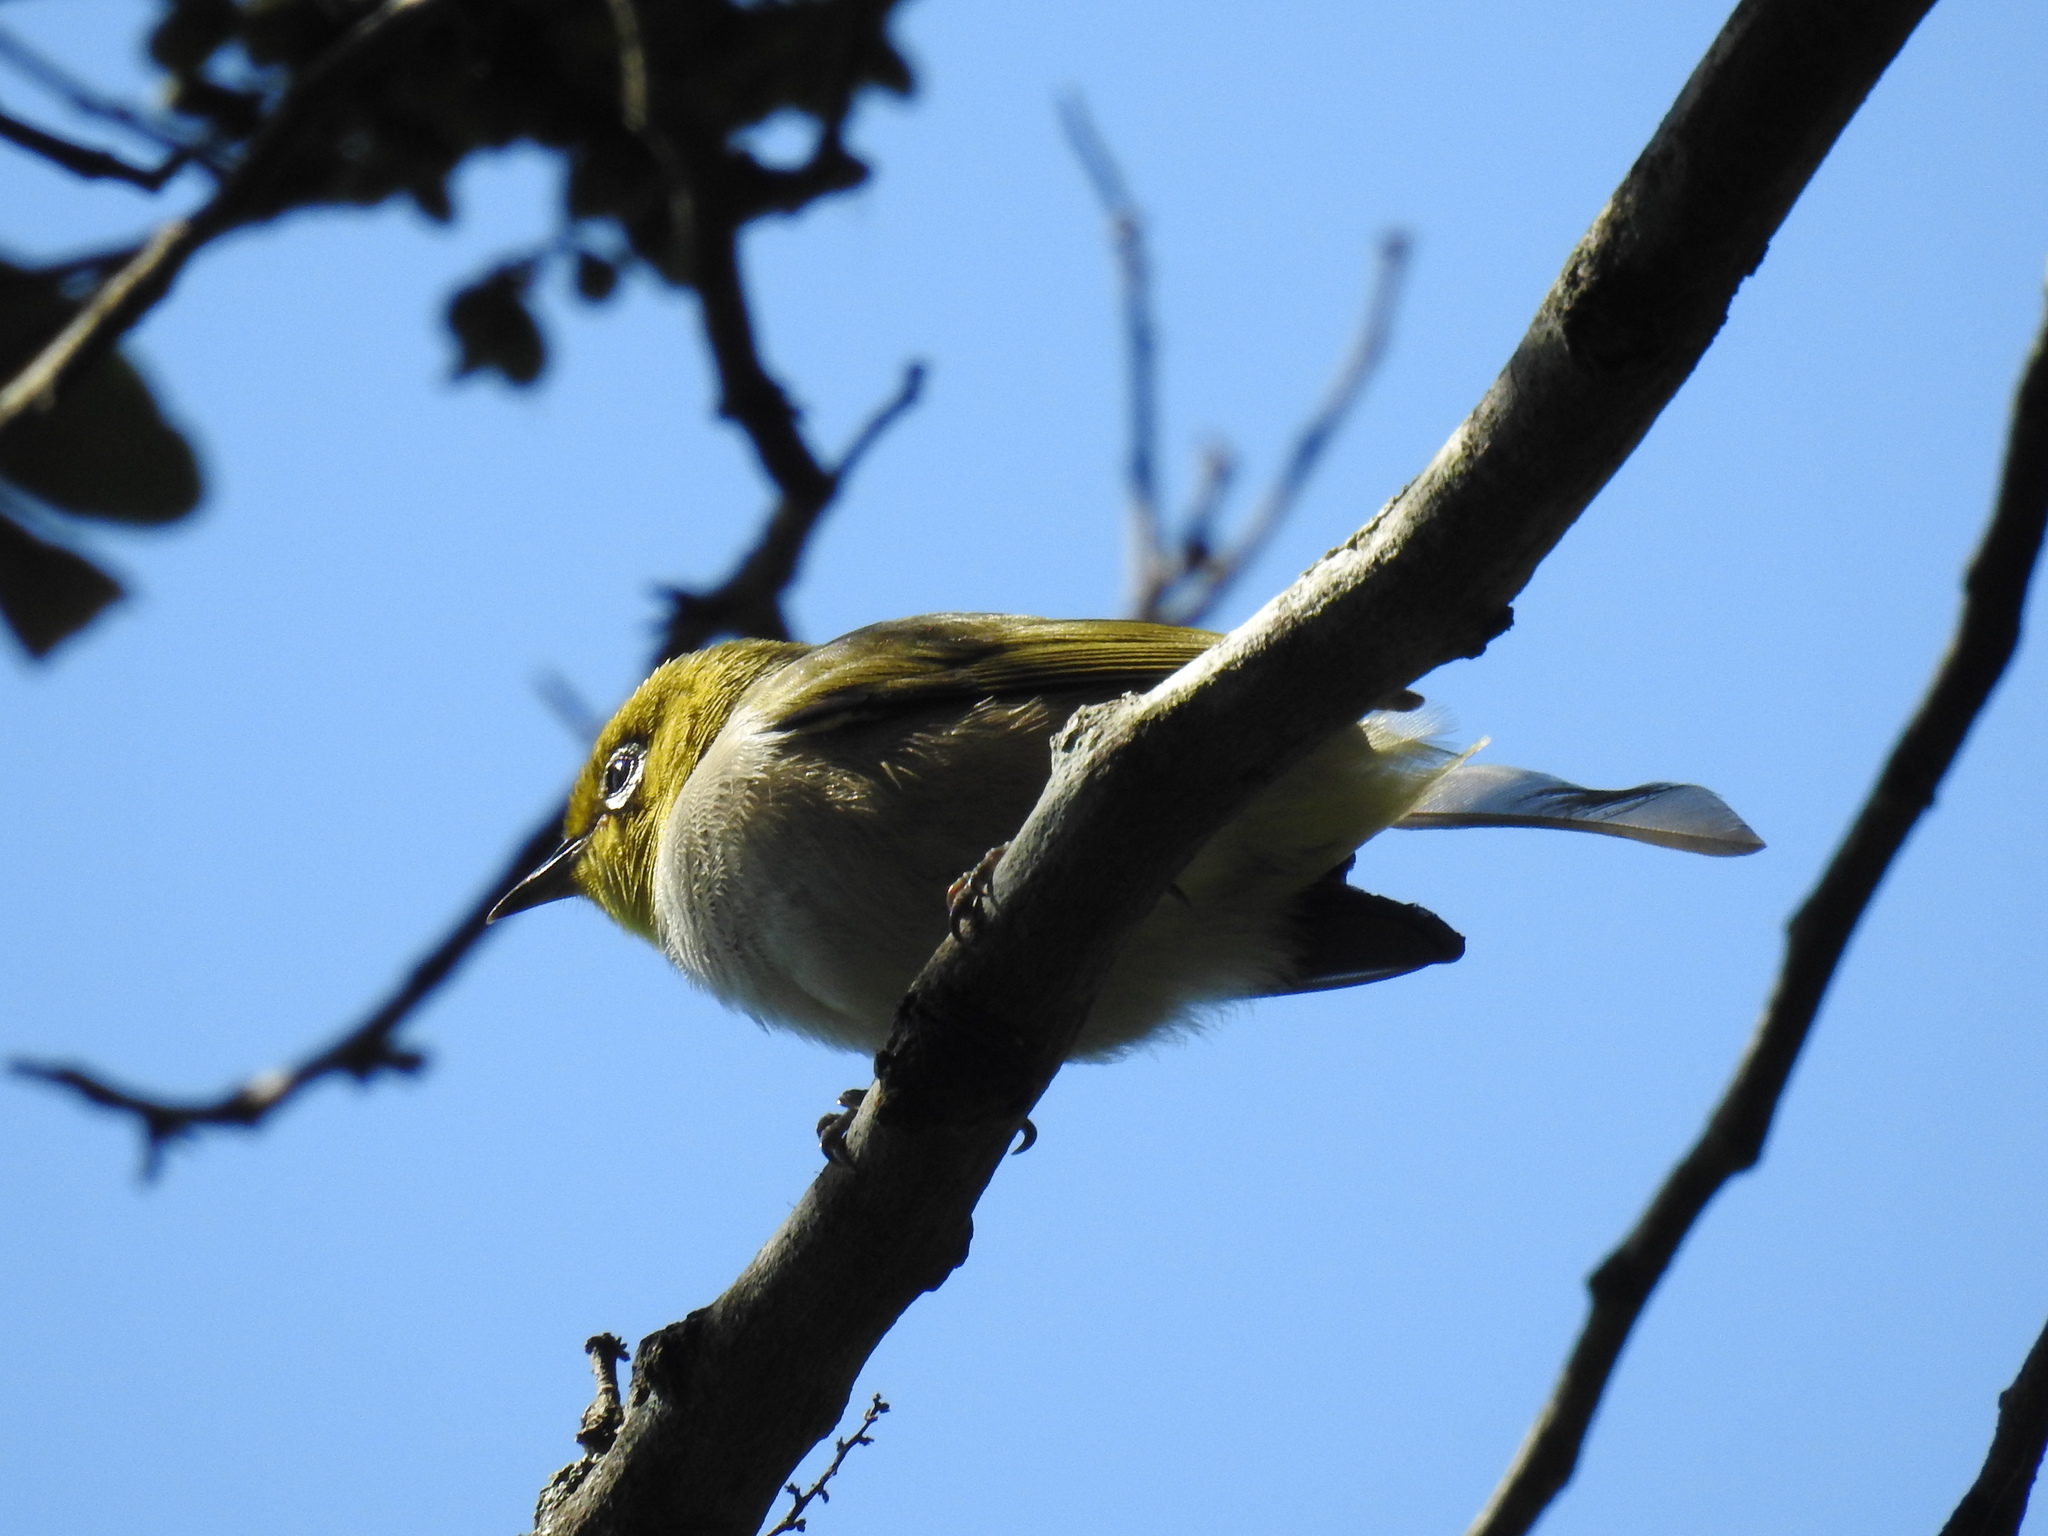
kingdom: Animalia
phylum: Chordata
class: Aves
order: Passeriformes
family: Zosteropidae
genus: Zosterops
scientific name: Zosterops lateralis
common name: Silvereye
